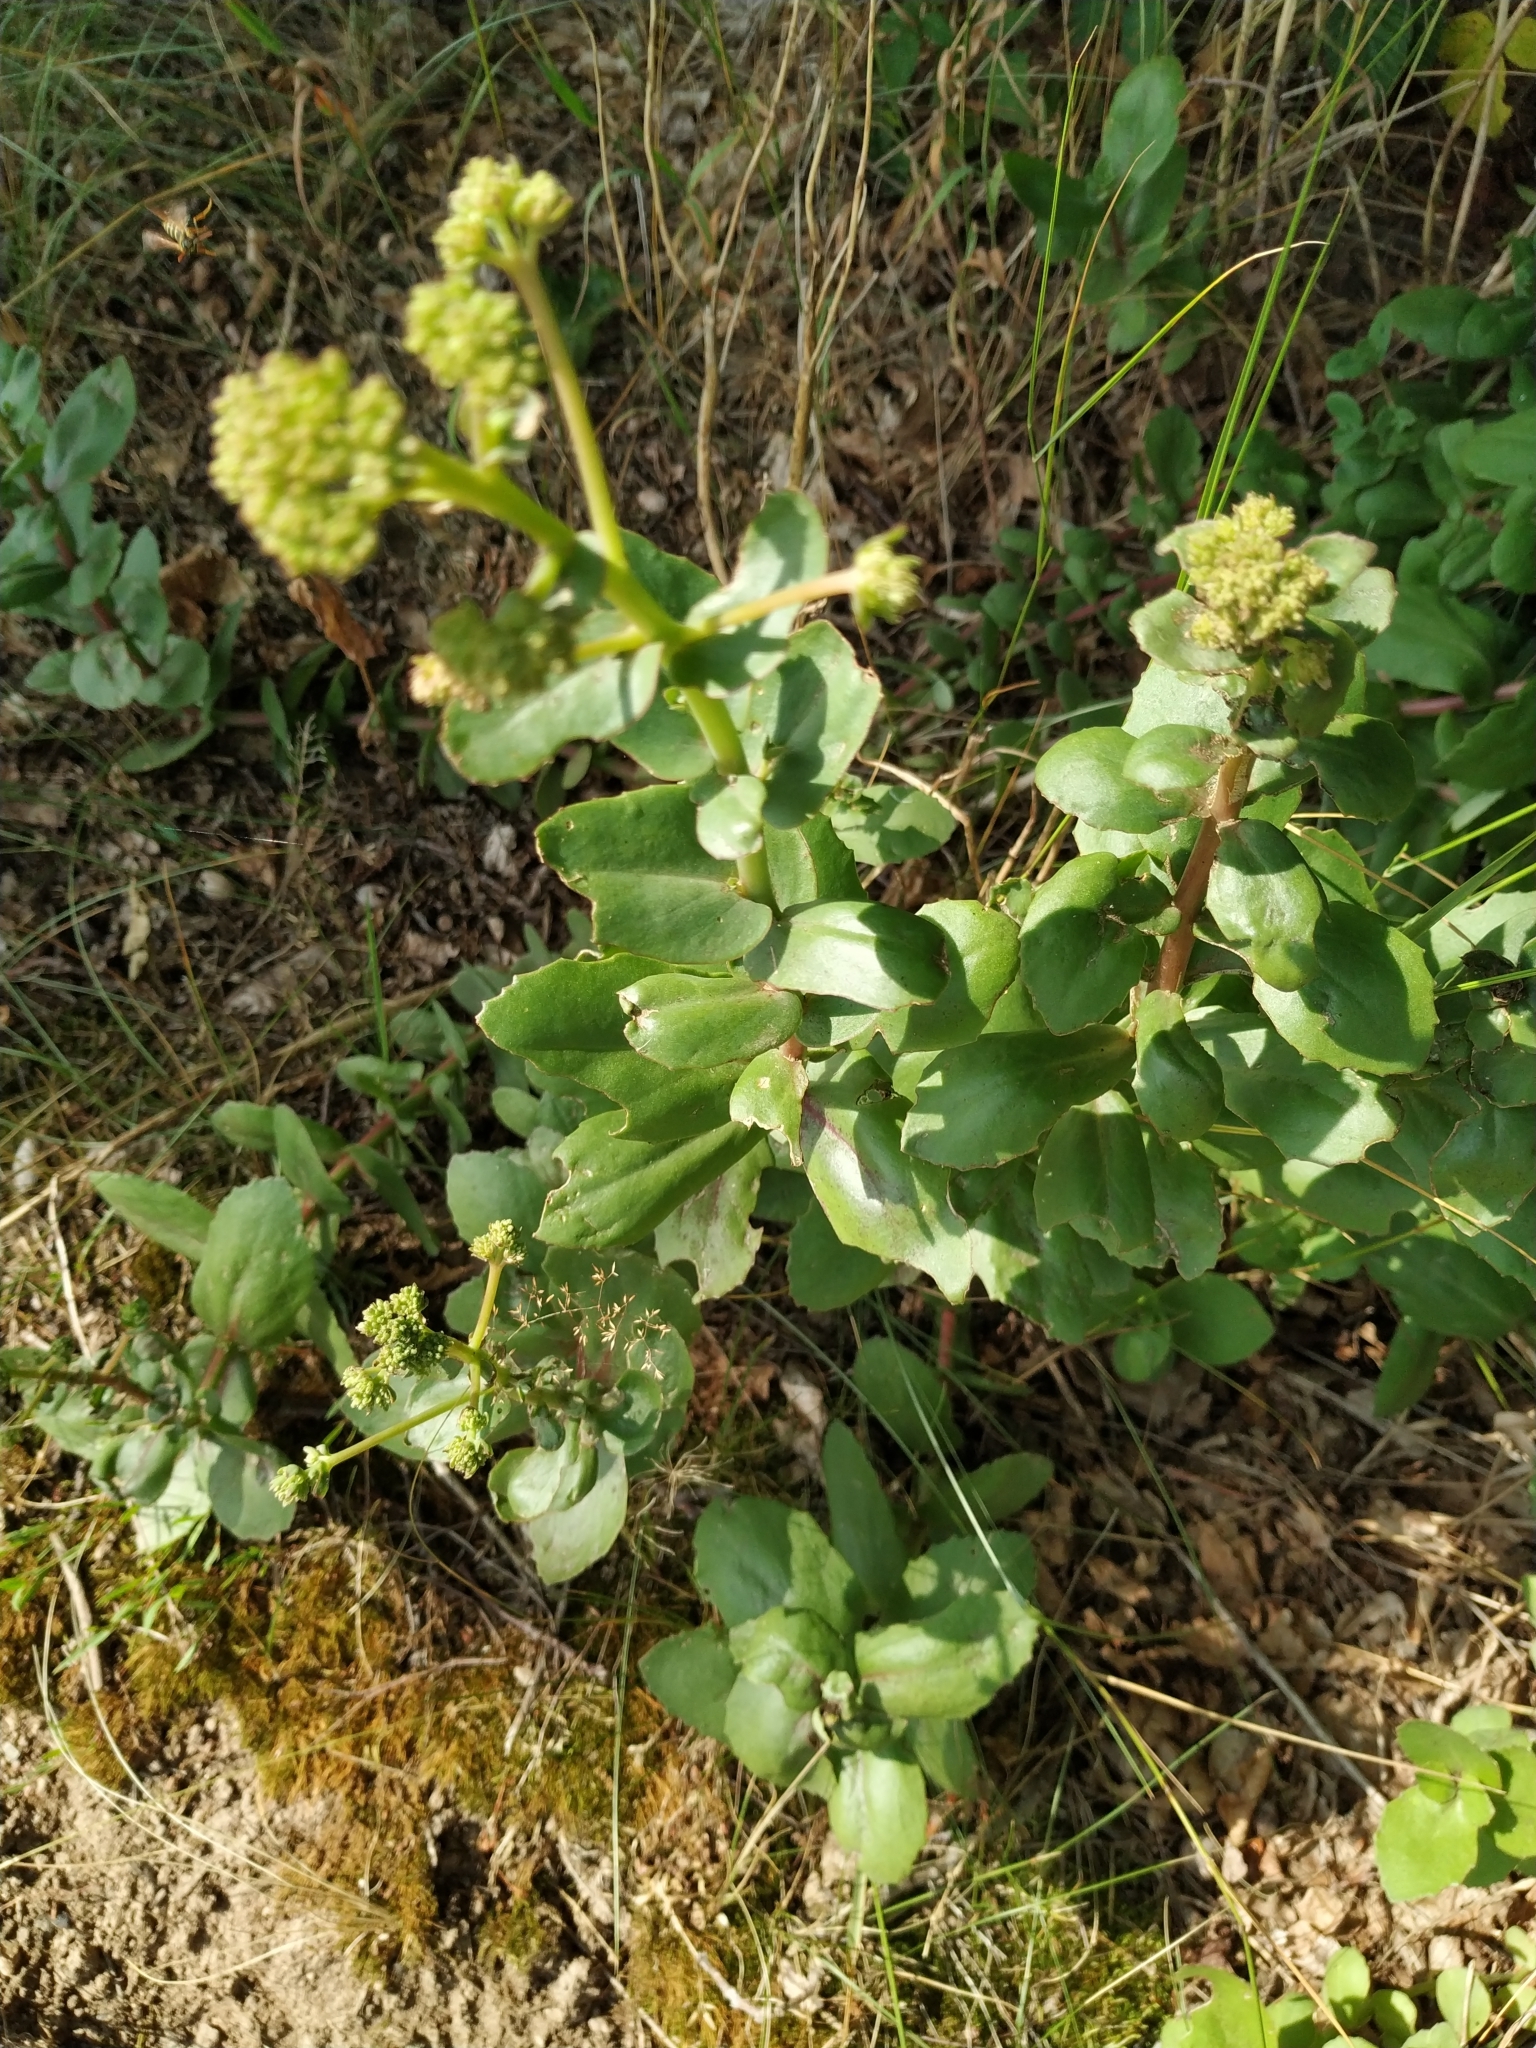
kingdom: Plantae
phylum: Tracheophyta
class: Magnoliopsida
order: Saxifragales
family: Crassulaceae
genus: Hylotelephium
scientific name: Hylotelephium maximum
